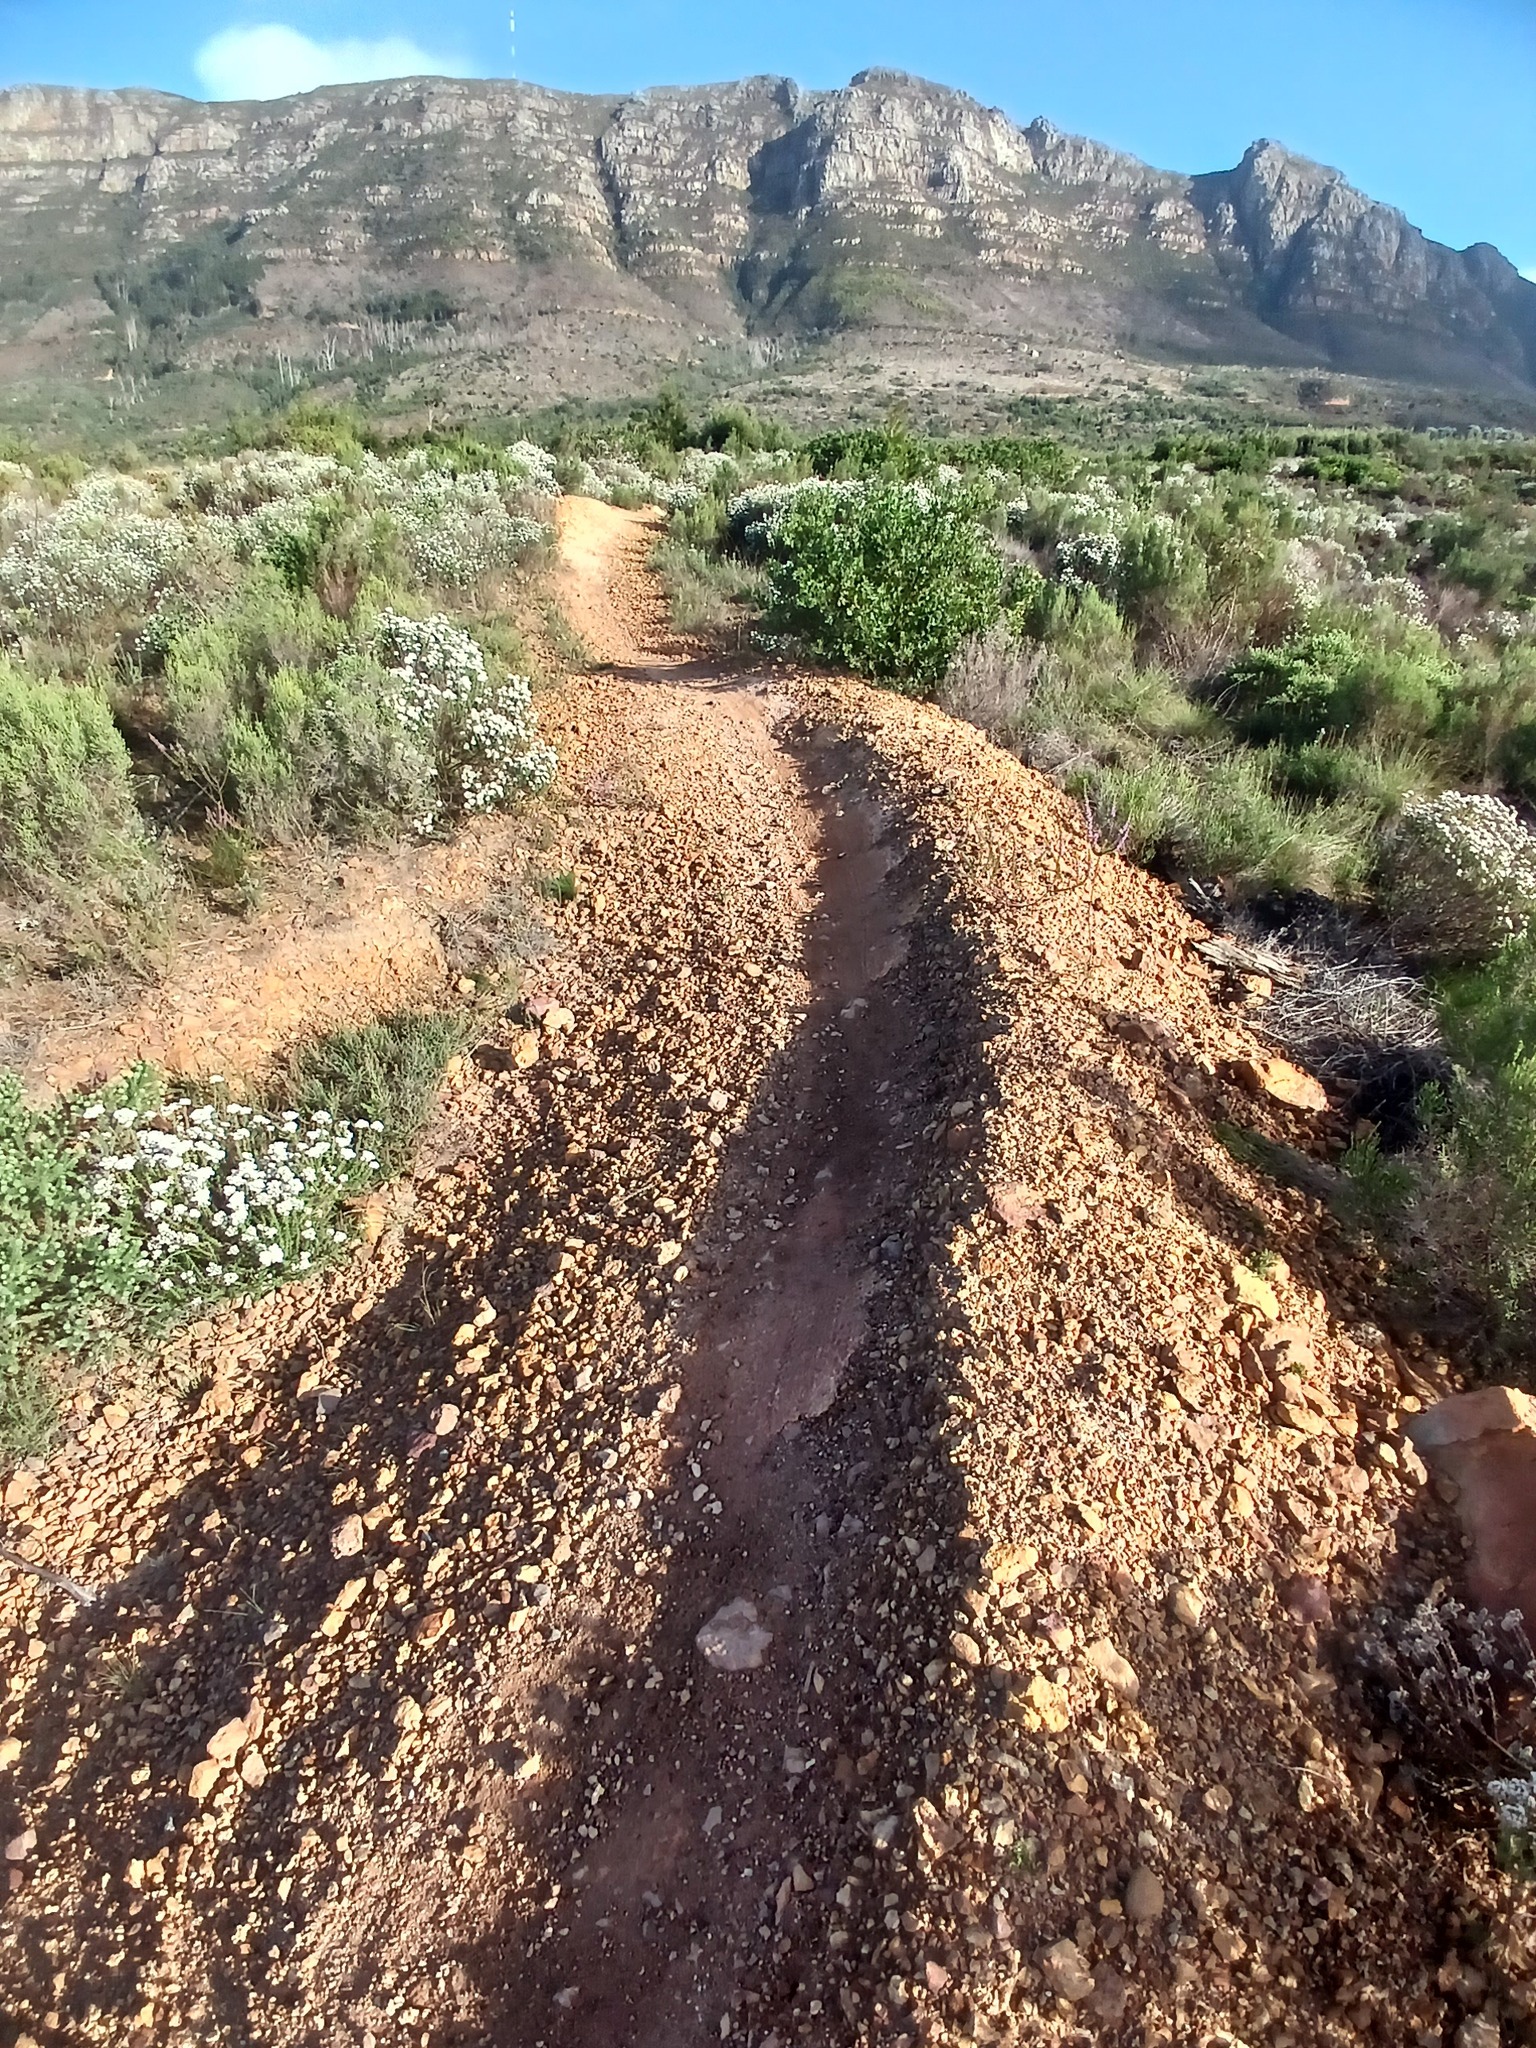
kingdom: Plantae
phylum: Tracheophyta
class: Magnoliopsida
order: Asterales
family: Asteraceae
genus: Osteospermum
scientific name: Osteospermum moniliferum
